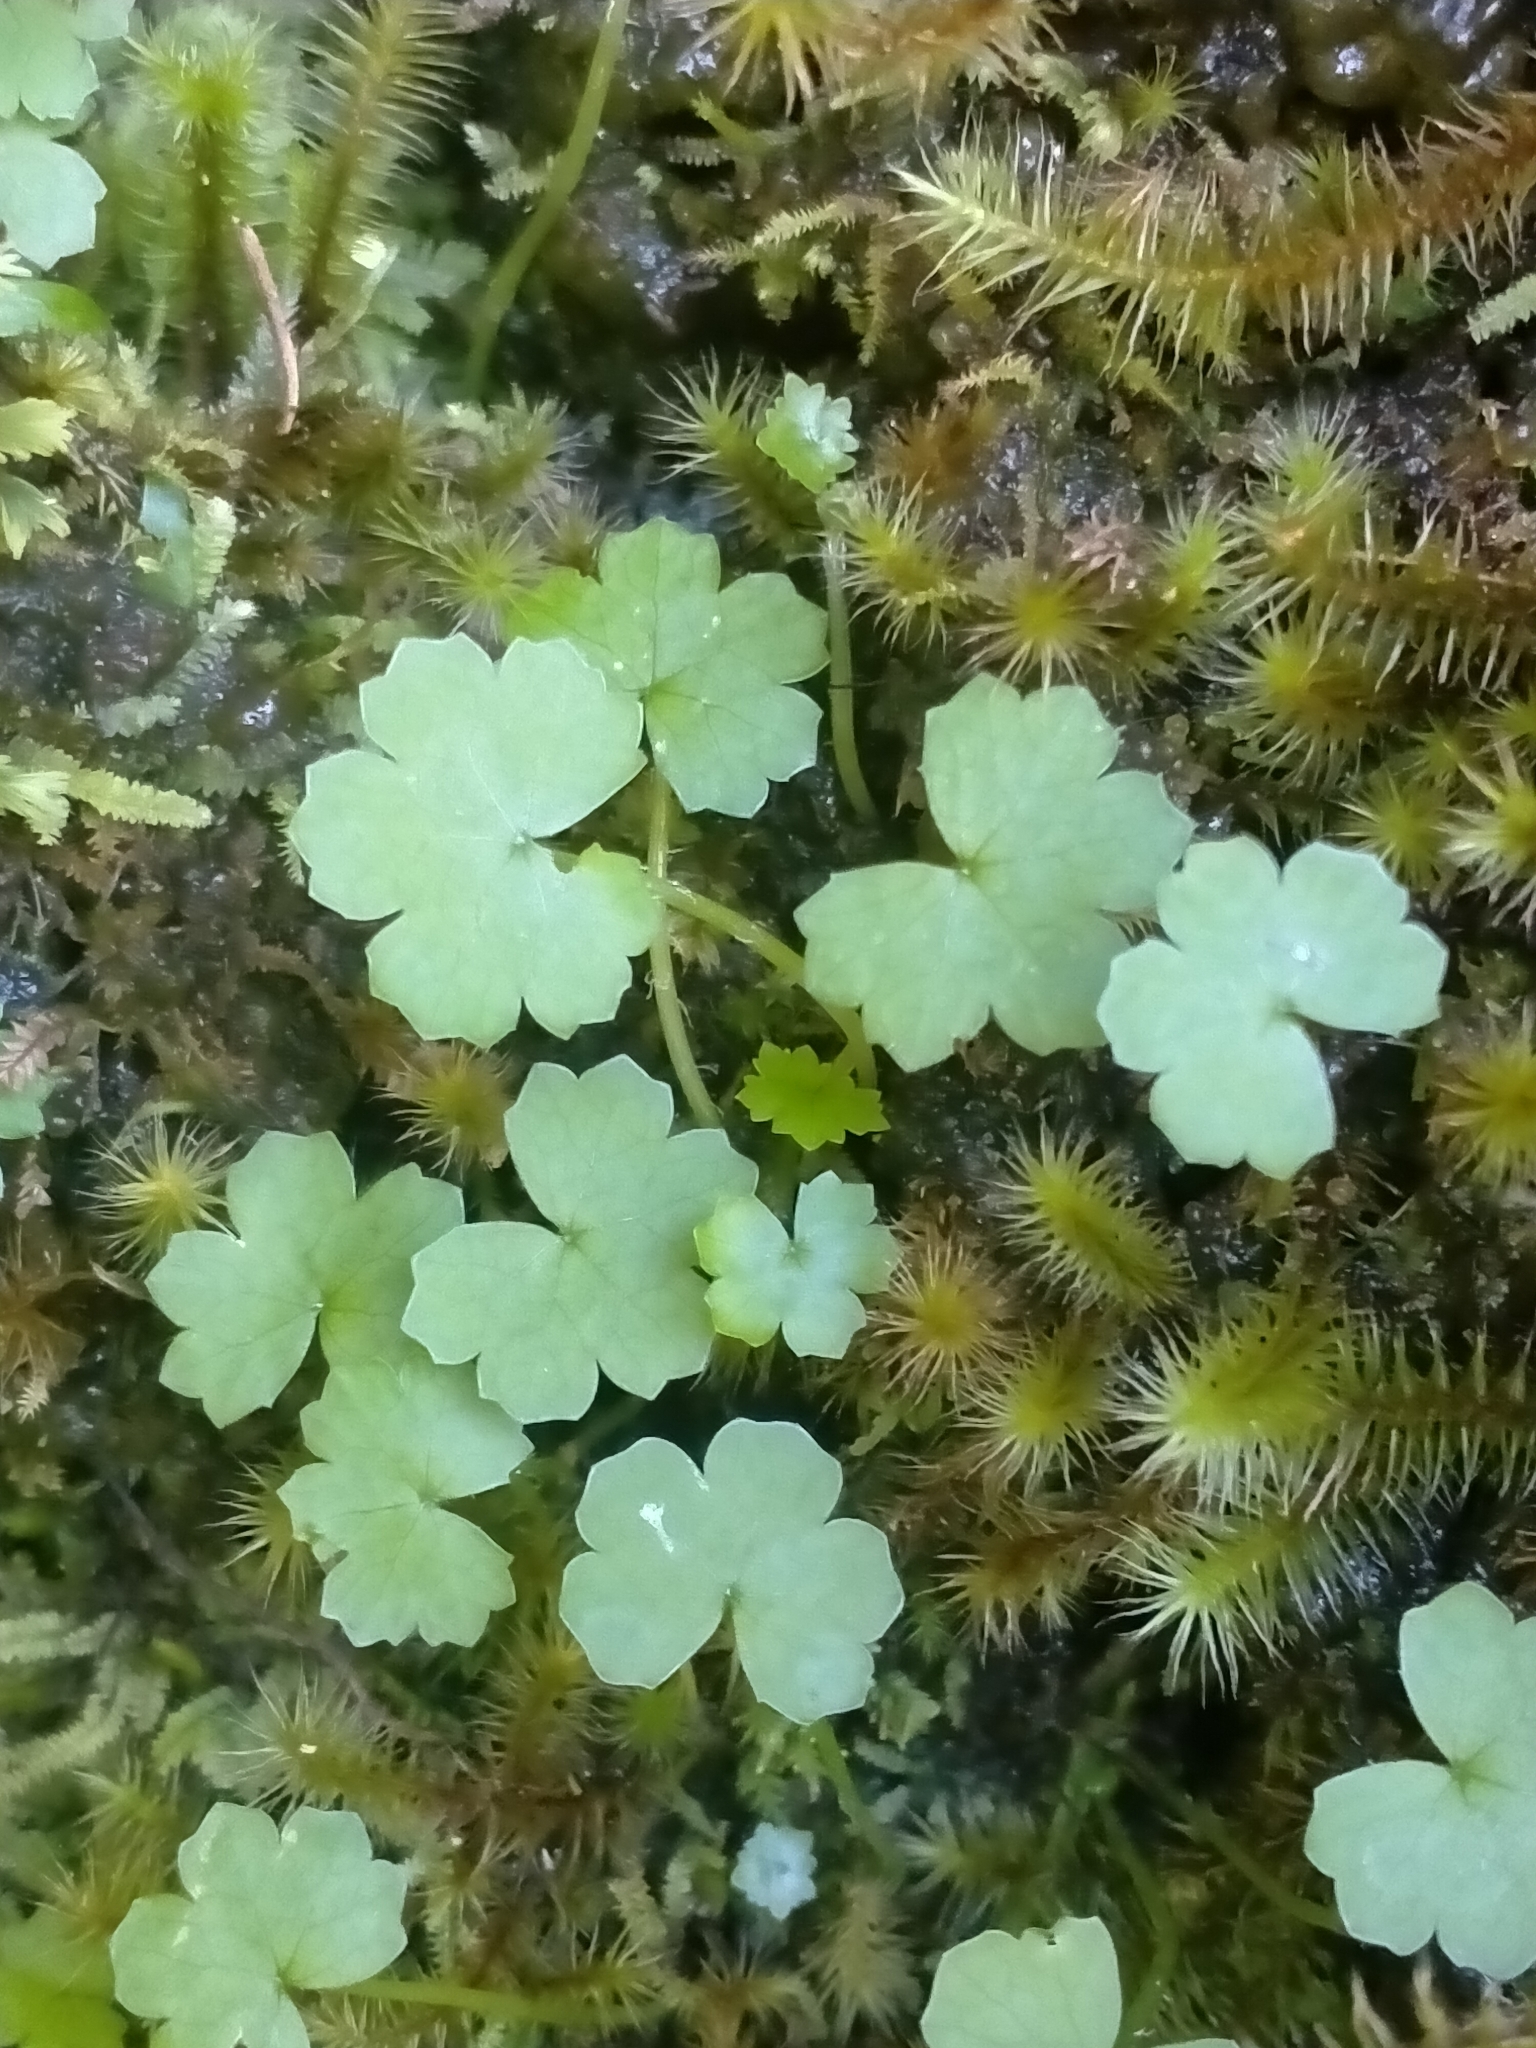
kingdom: Plantae
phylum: Tracheophyta
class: Magnoliopsida
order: Apiales
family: Araliaceae
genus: Hydrocotyle
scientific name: Hydrocotyle heteromeria
